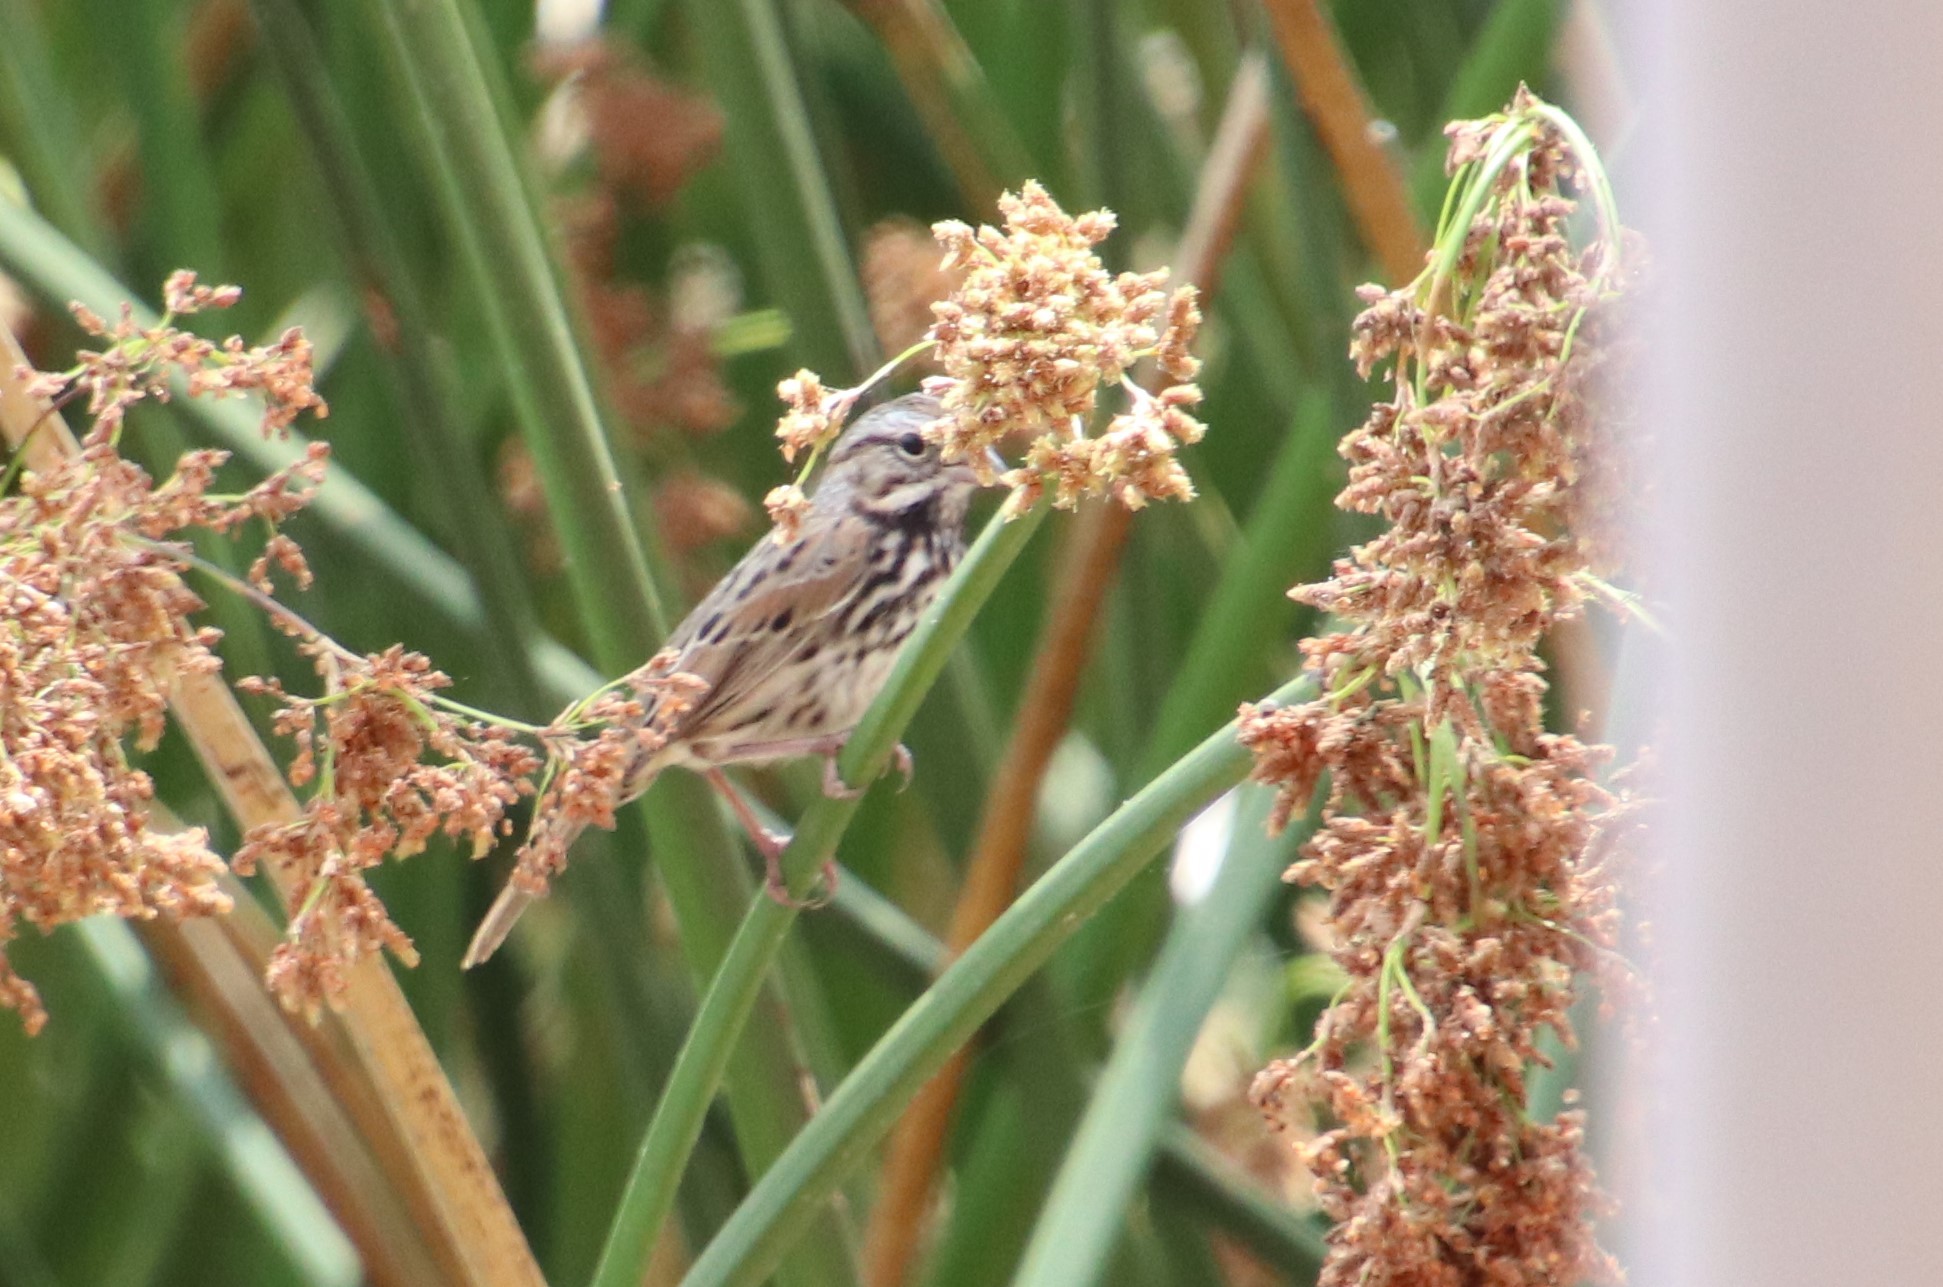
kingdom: Animalia
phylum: Chordata
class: Aves
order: Passeriformes
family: Passerellidae
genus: Melospiza
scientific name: Melospiza melodia
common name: Song sparrow
